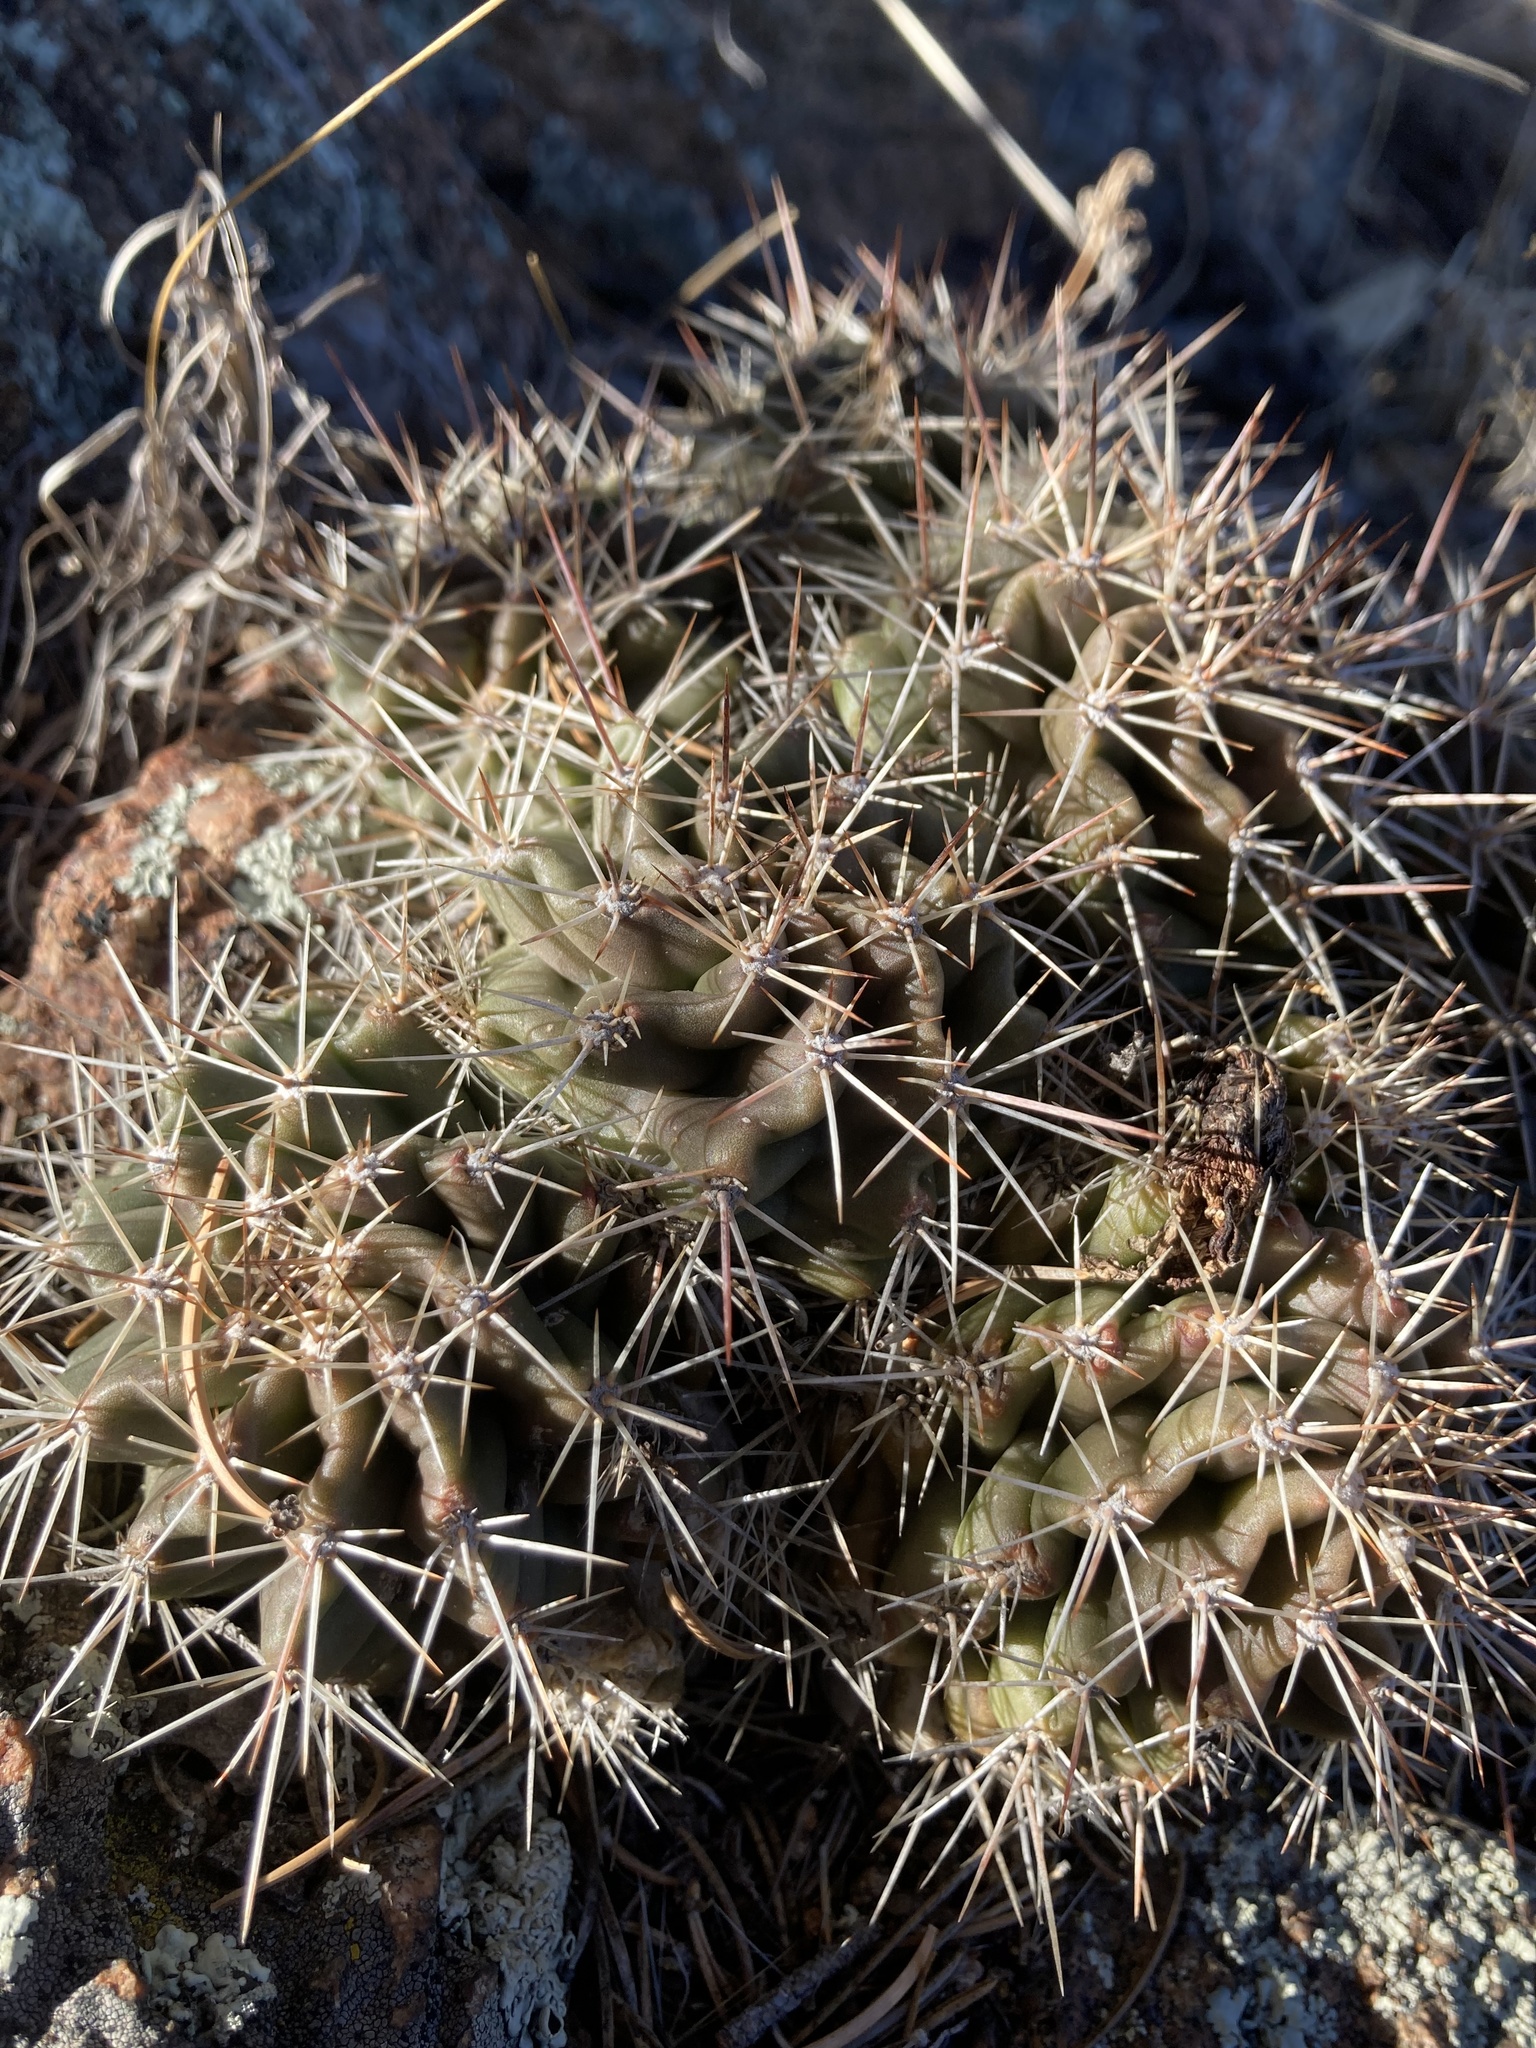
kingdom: Plantae
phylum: Tracheophyta
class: Magnoliopsida
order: Caryophyllales
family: Cactaceae
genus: Echinocereus
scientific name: Echinocereus coccineus
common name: Scarlet hedgehog cactus
